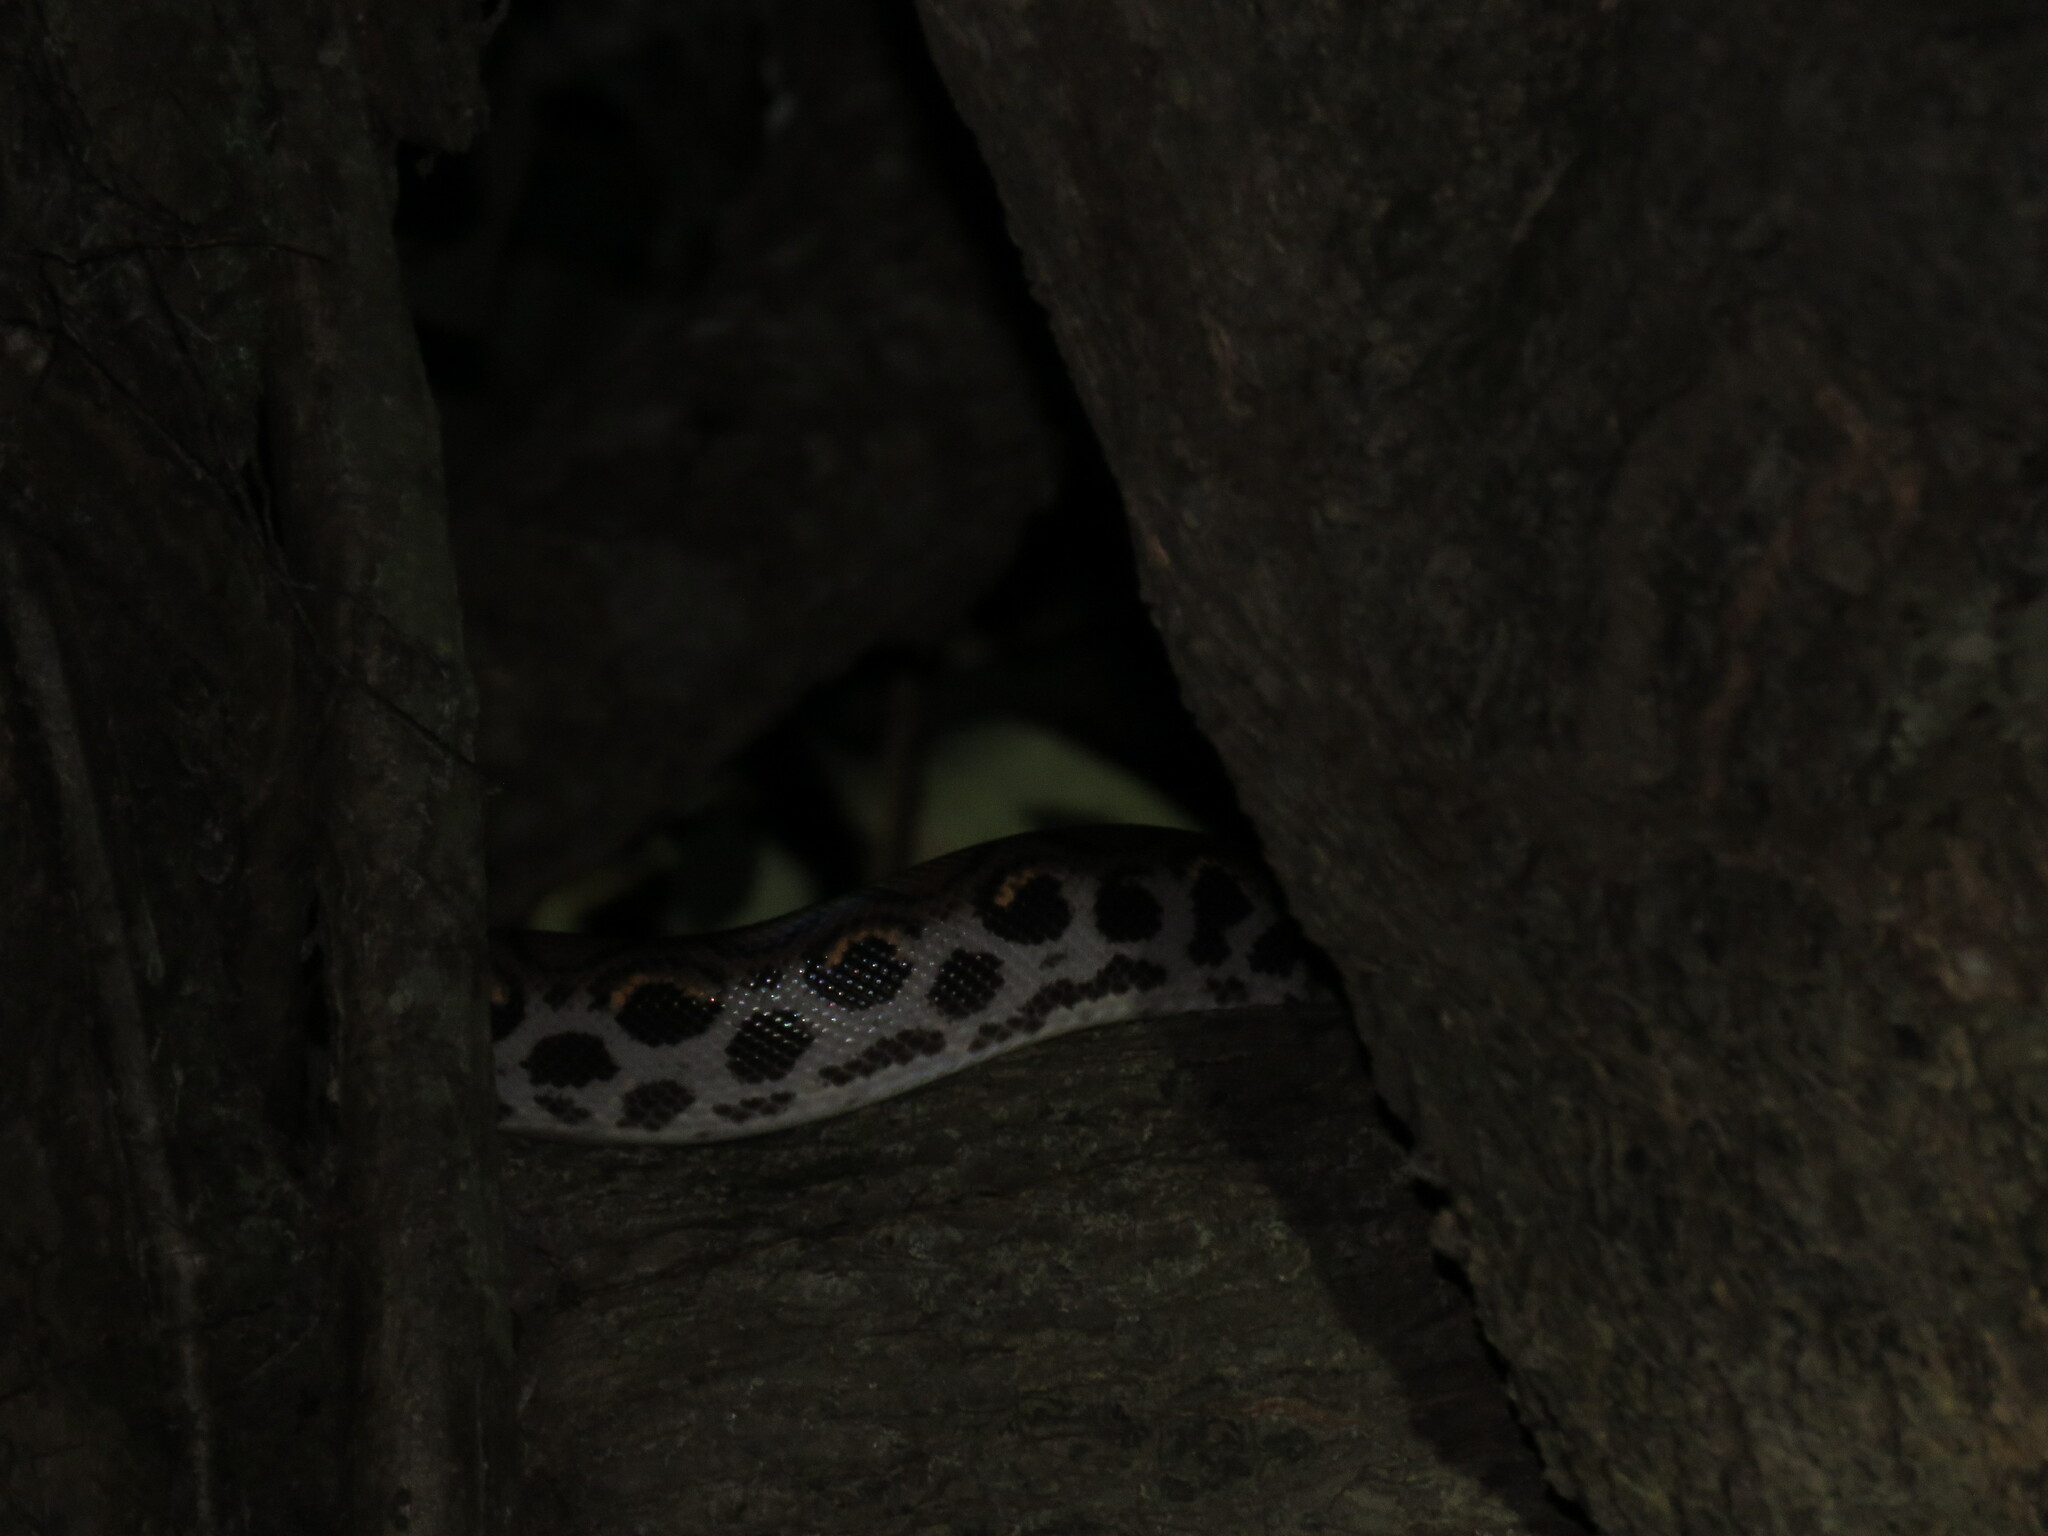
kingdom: Animalia
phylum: Chordata
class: Squamata
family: Boidae
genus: Epicrates
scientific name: Epicrates cenchria
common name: Rainbow boa
